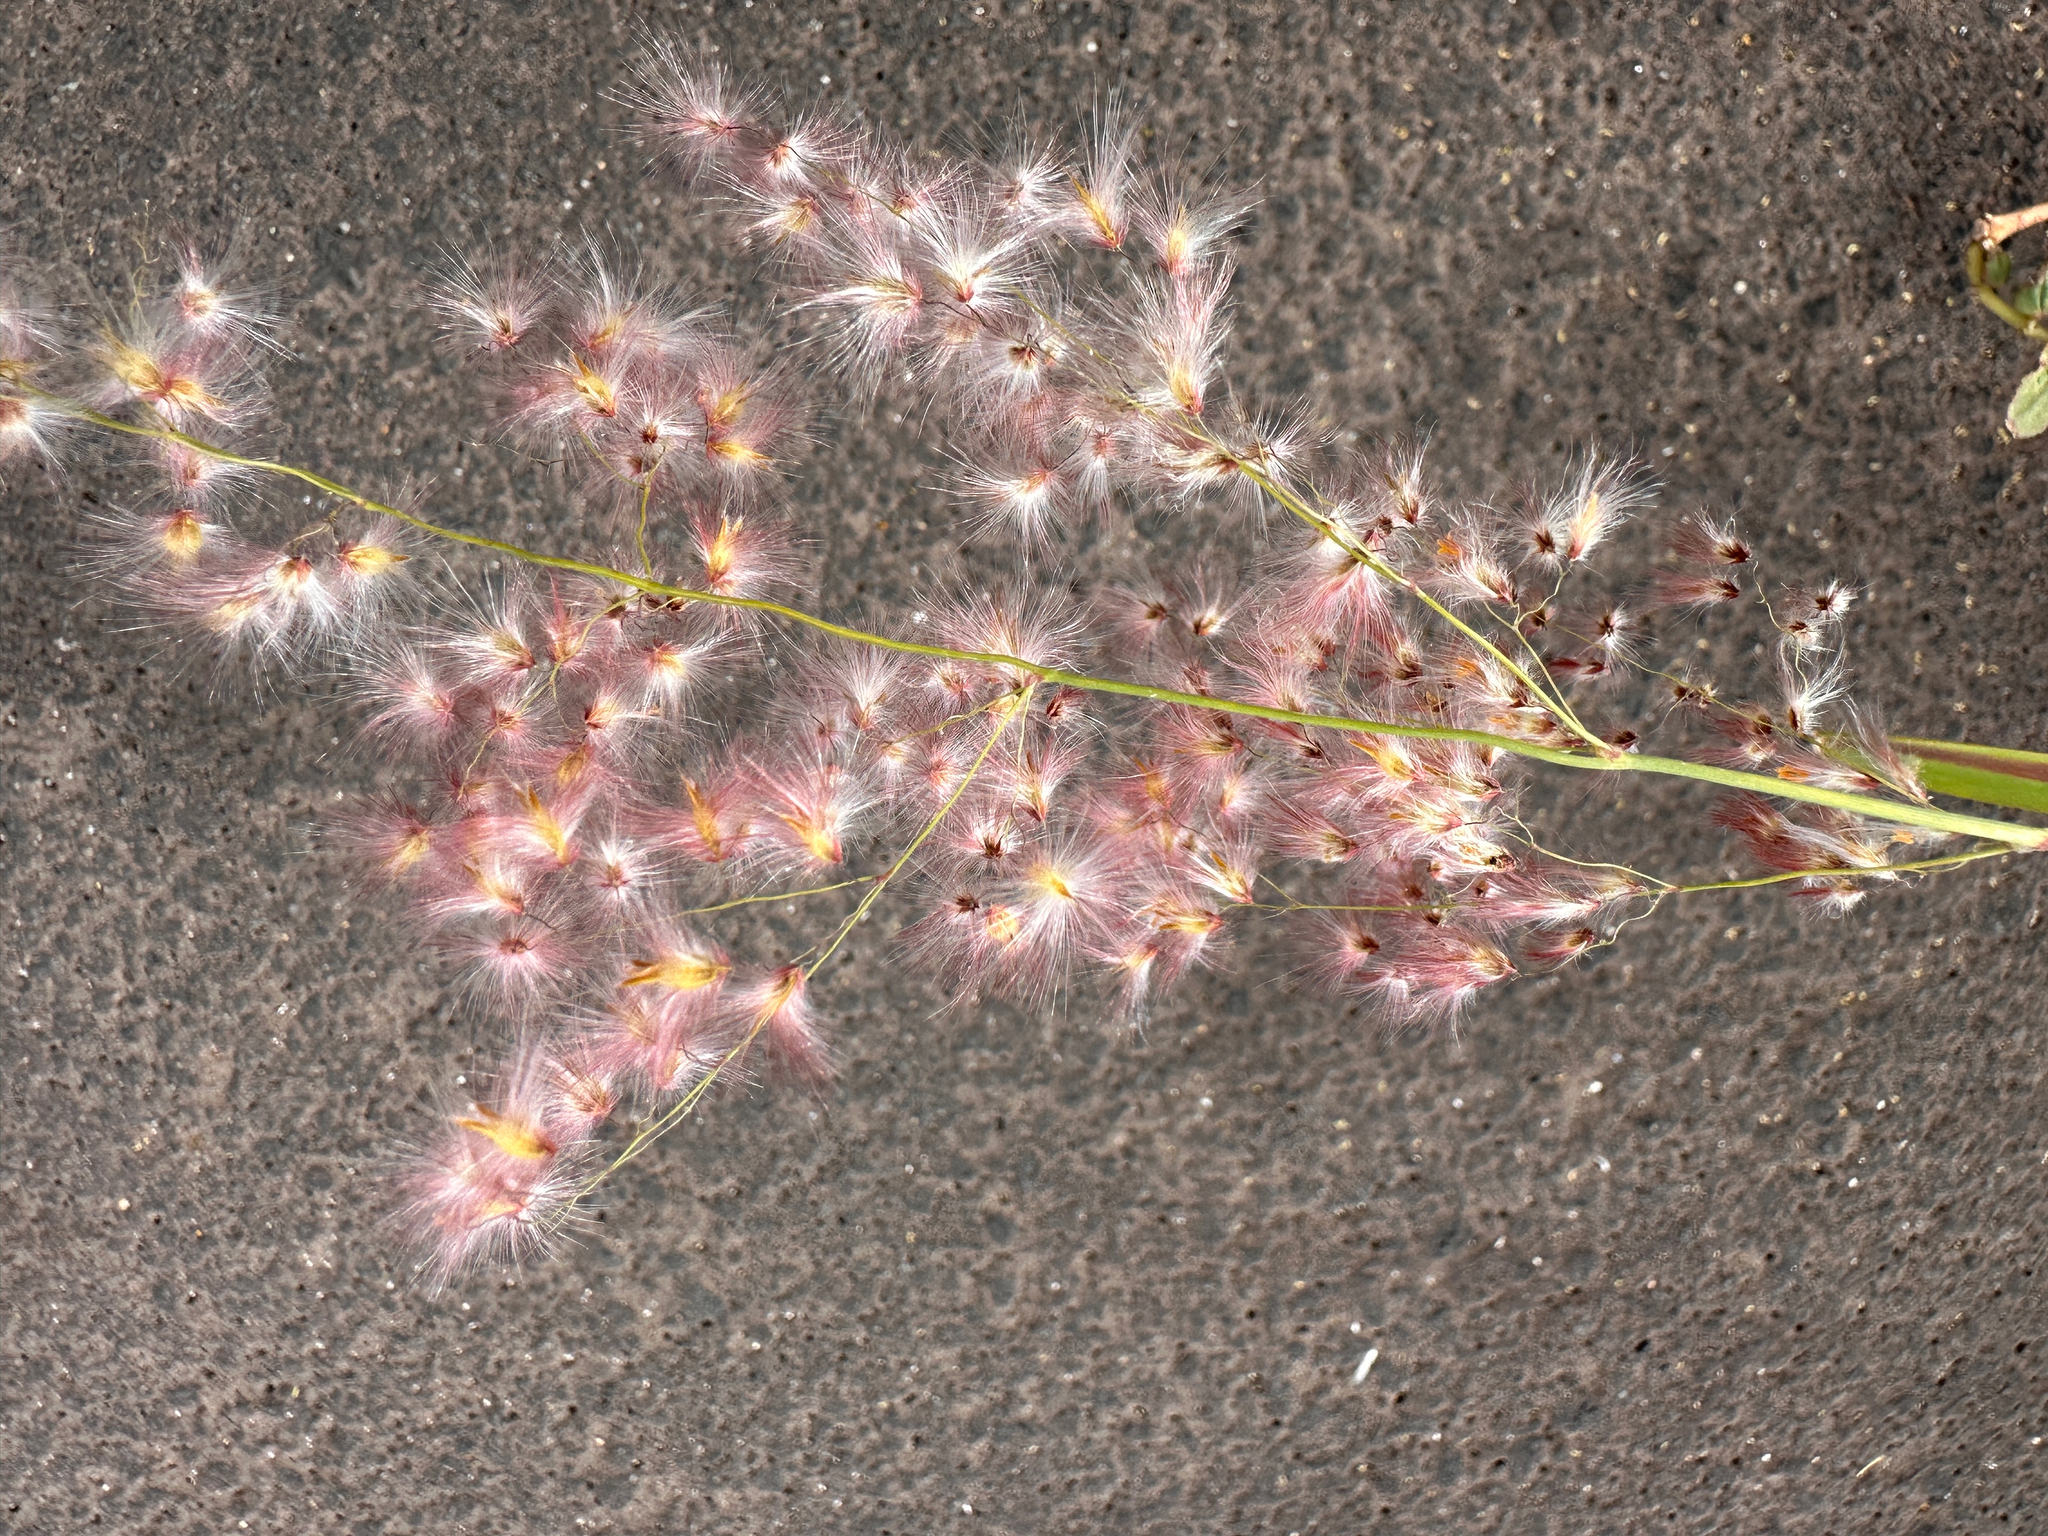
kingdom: Plantae
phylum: Tracheophyta
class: Liliopsida
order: Poales
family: Poaceae
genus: Melinis
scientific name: Melinis repens
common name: Rose natal grass
